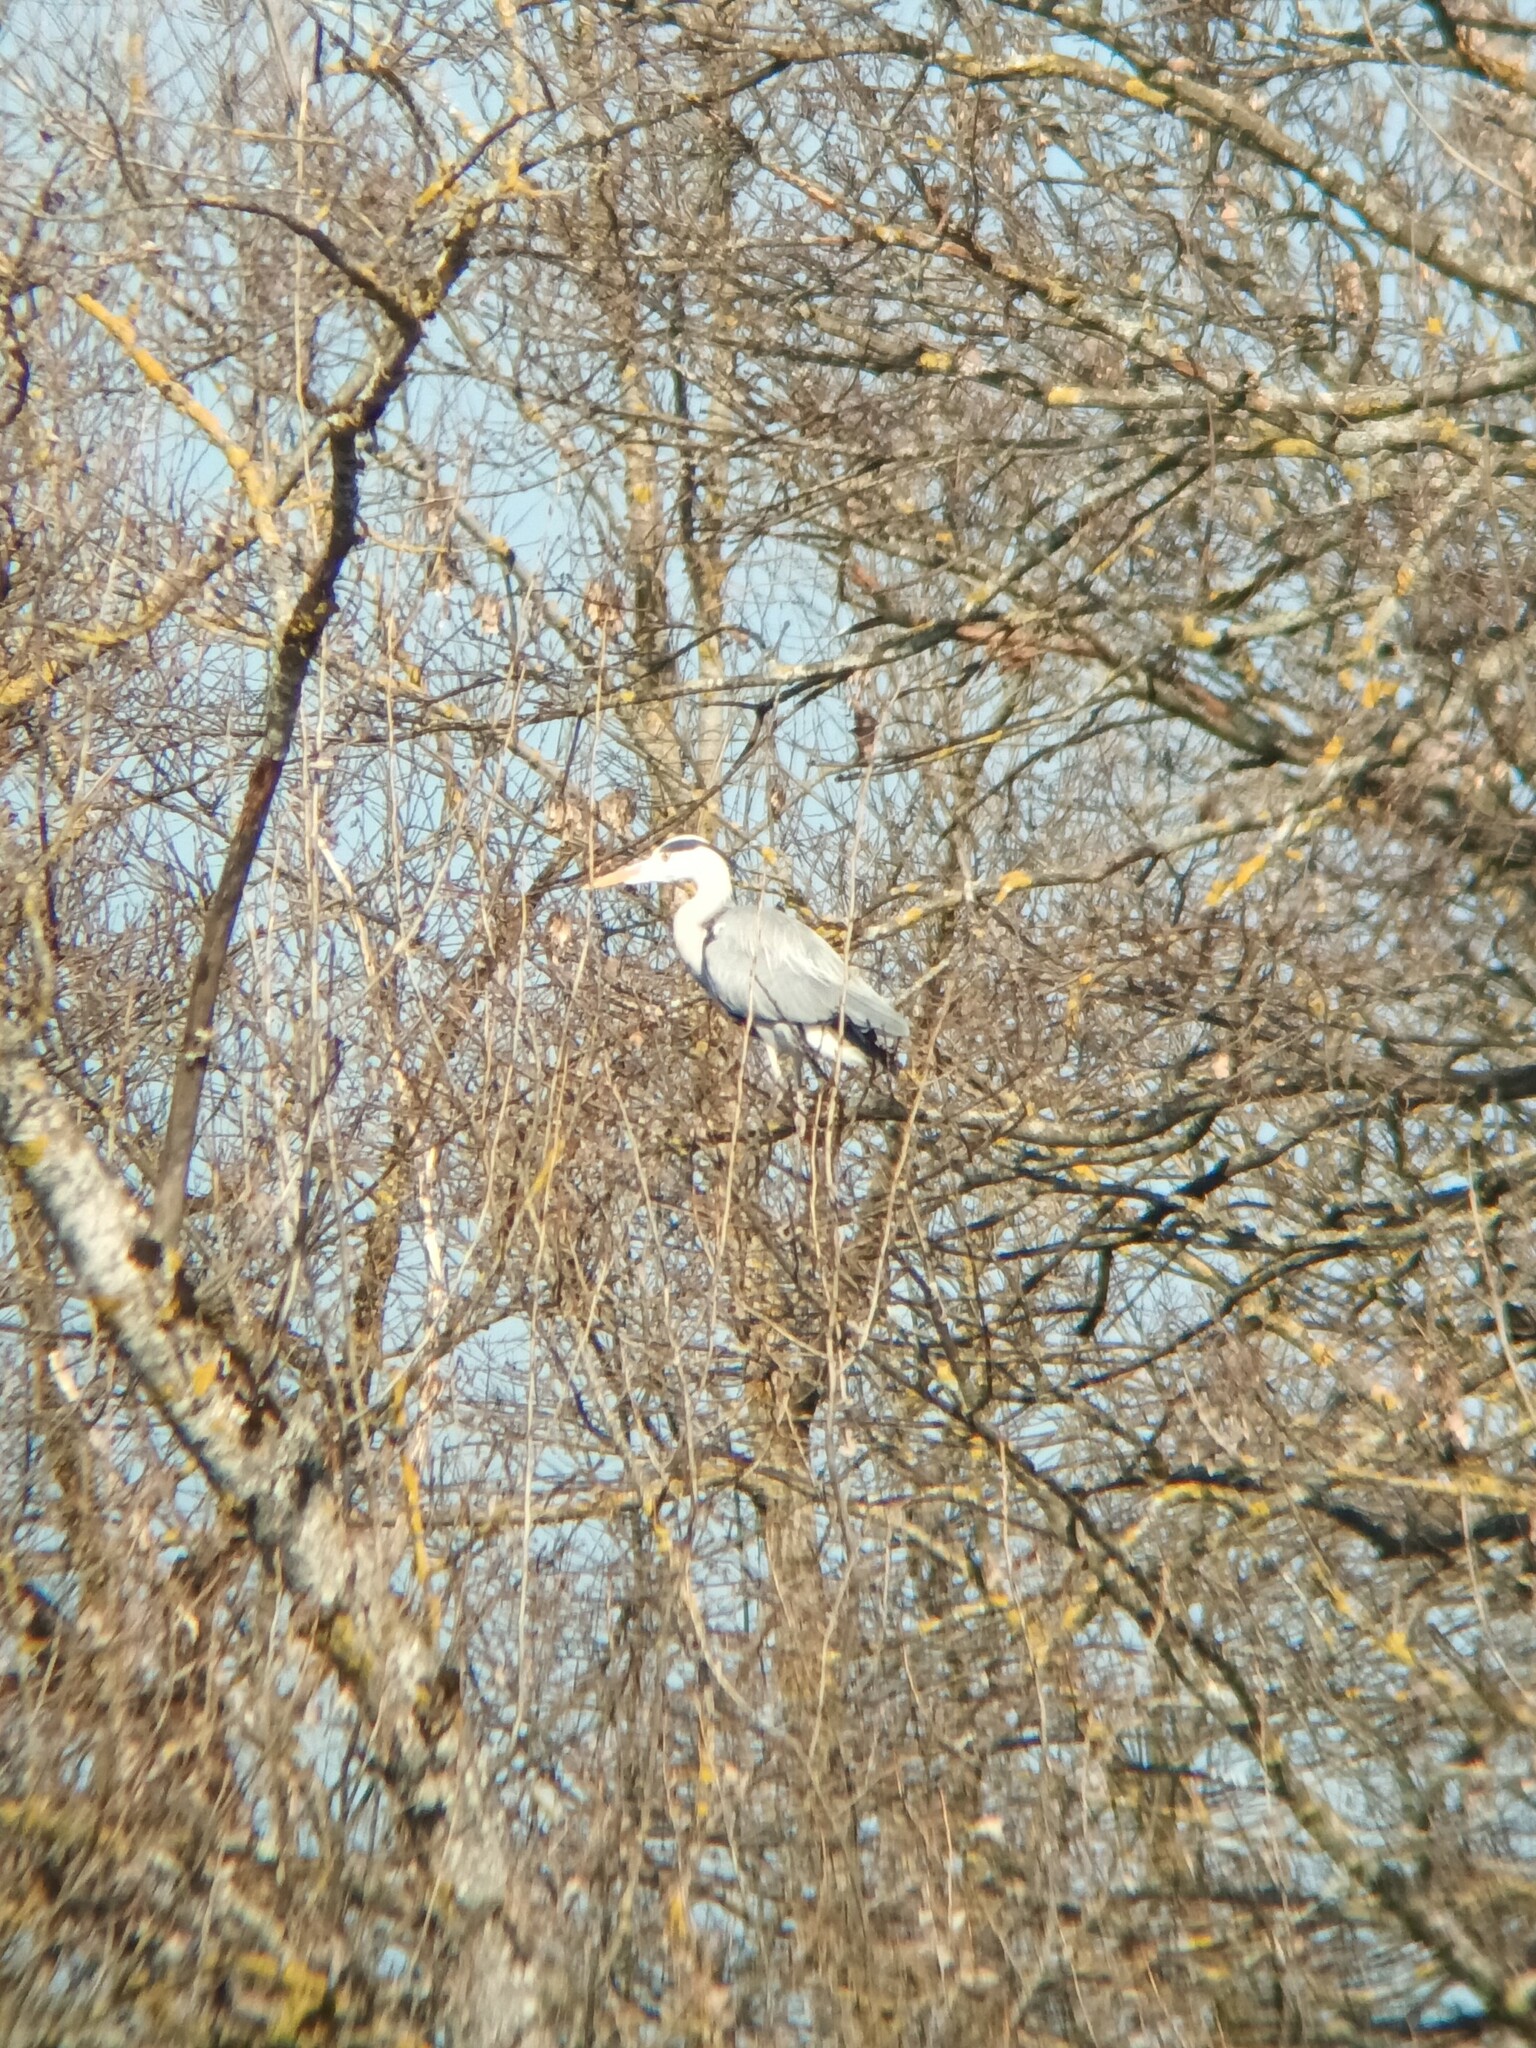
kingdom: Animalia
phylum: Chordata
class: Aves
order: Pelecaniformes
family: Ardeidae
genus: Ardea
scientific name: Ardea cinerea
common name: Grey heron
